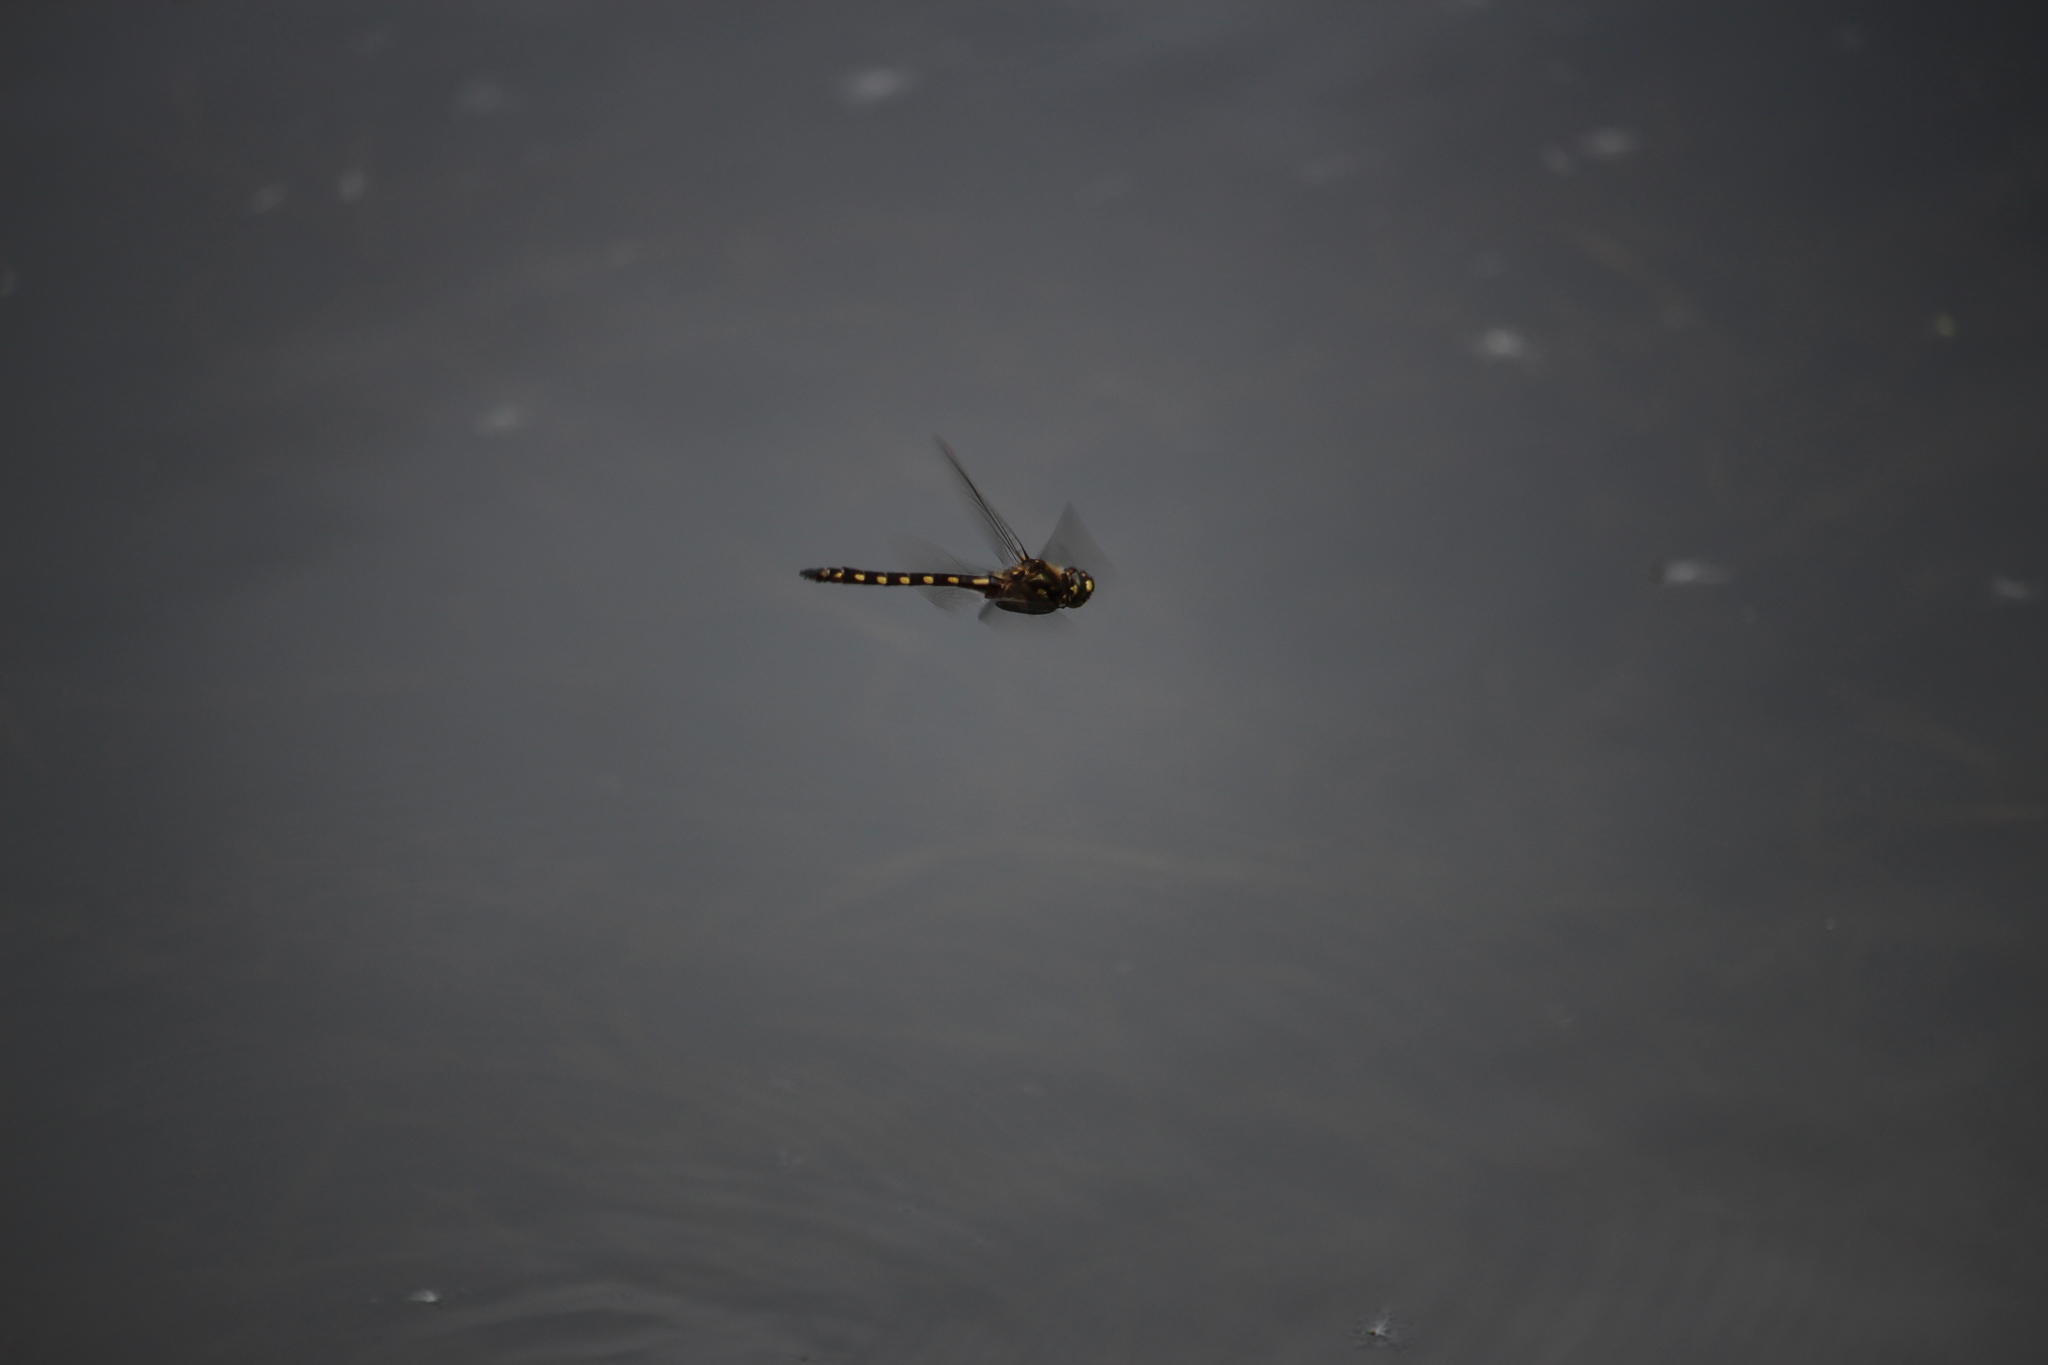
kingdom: Animalia
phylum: Arthropoda
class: Insecta
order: Odonata
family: Corduliidae
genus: Procordulia
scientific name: Procordulia grayi
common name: Yellow spotted dragonfly
